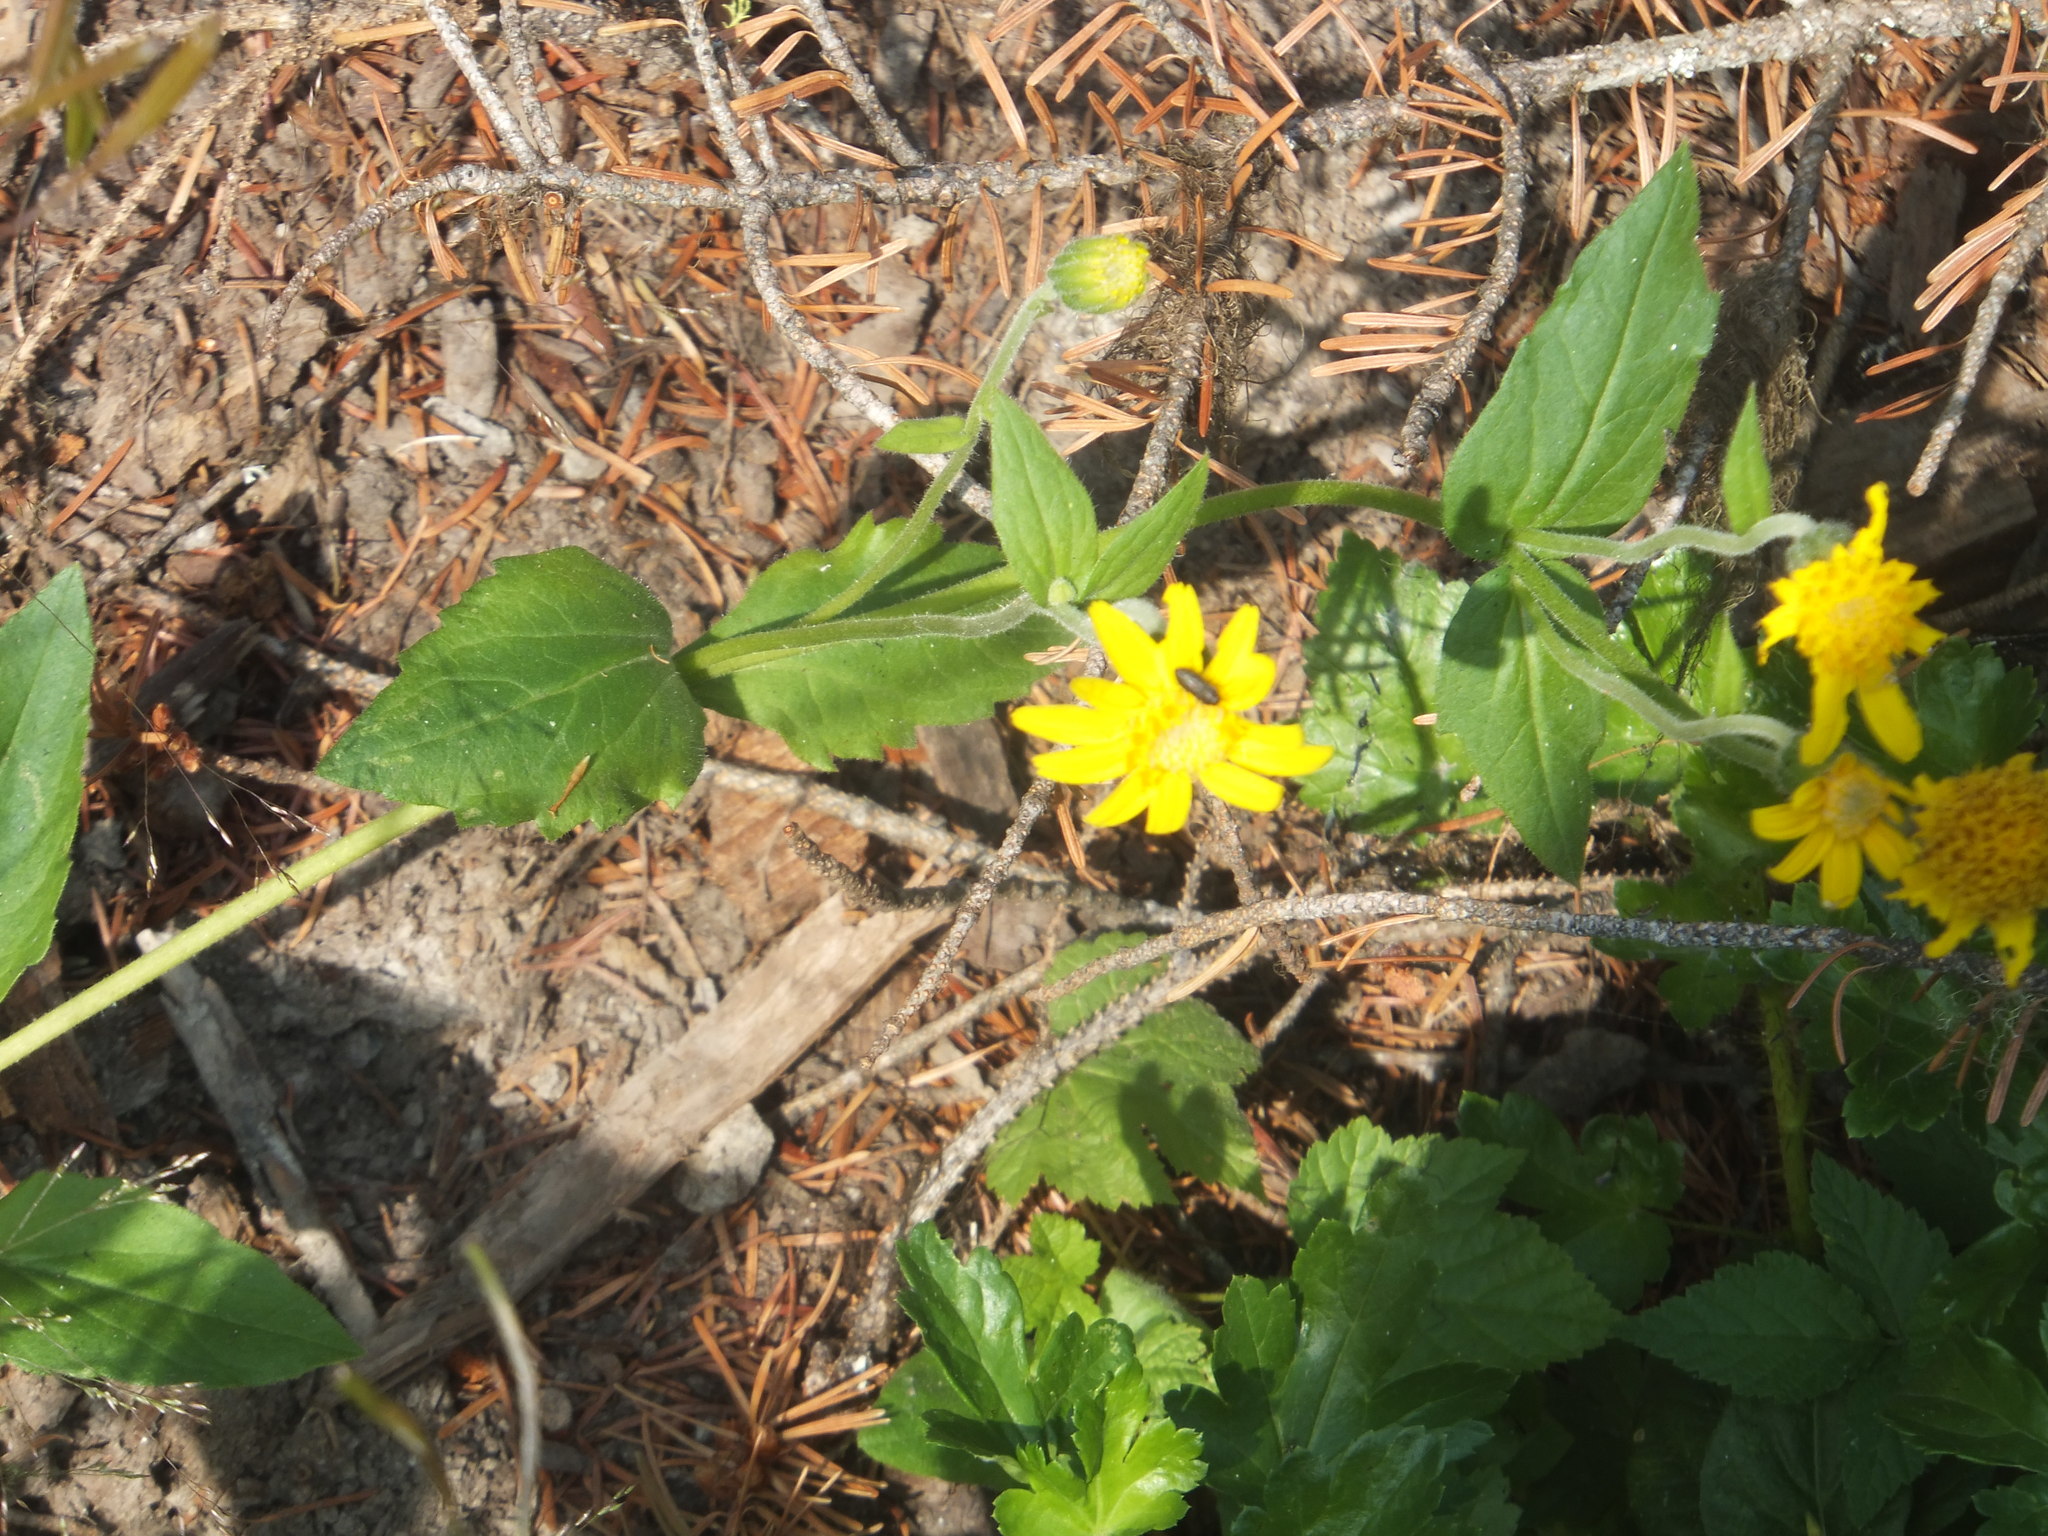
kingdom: Plantae
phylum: Tracheophyta
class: Magnoliopsida
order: Asterales
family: Asteraceae
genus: Arnica
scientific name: Arnica latifolia
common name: Arnica
